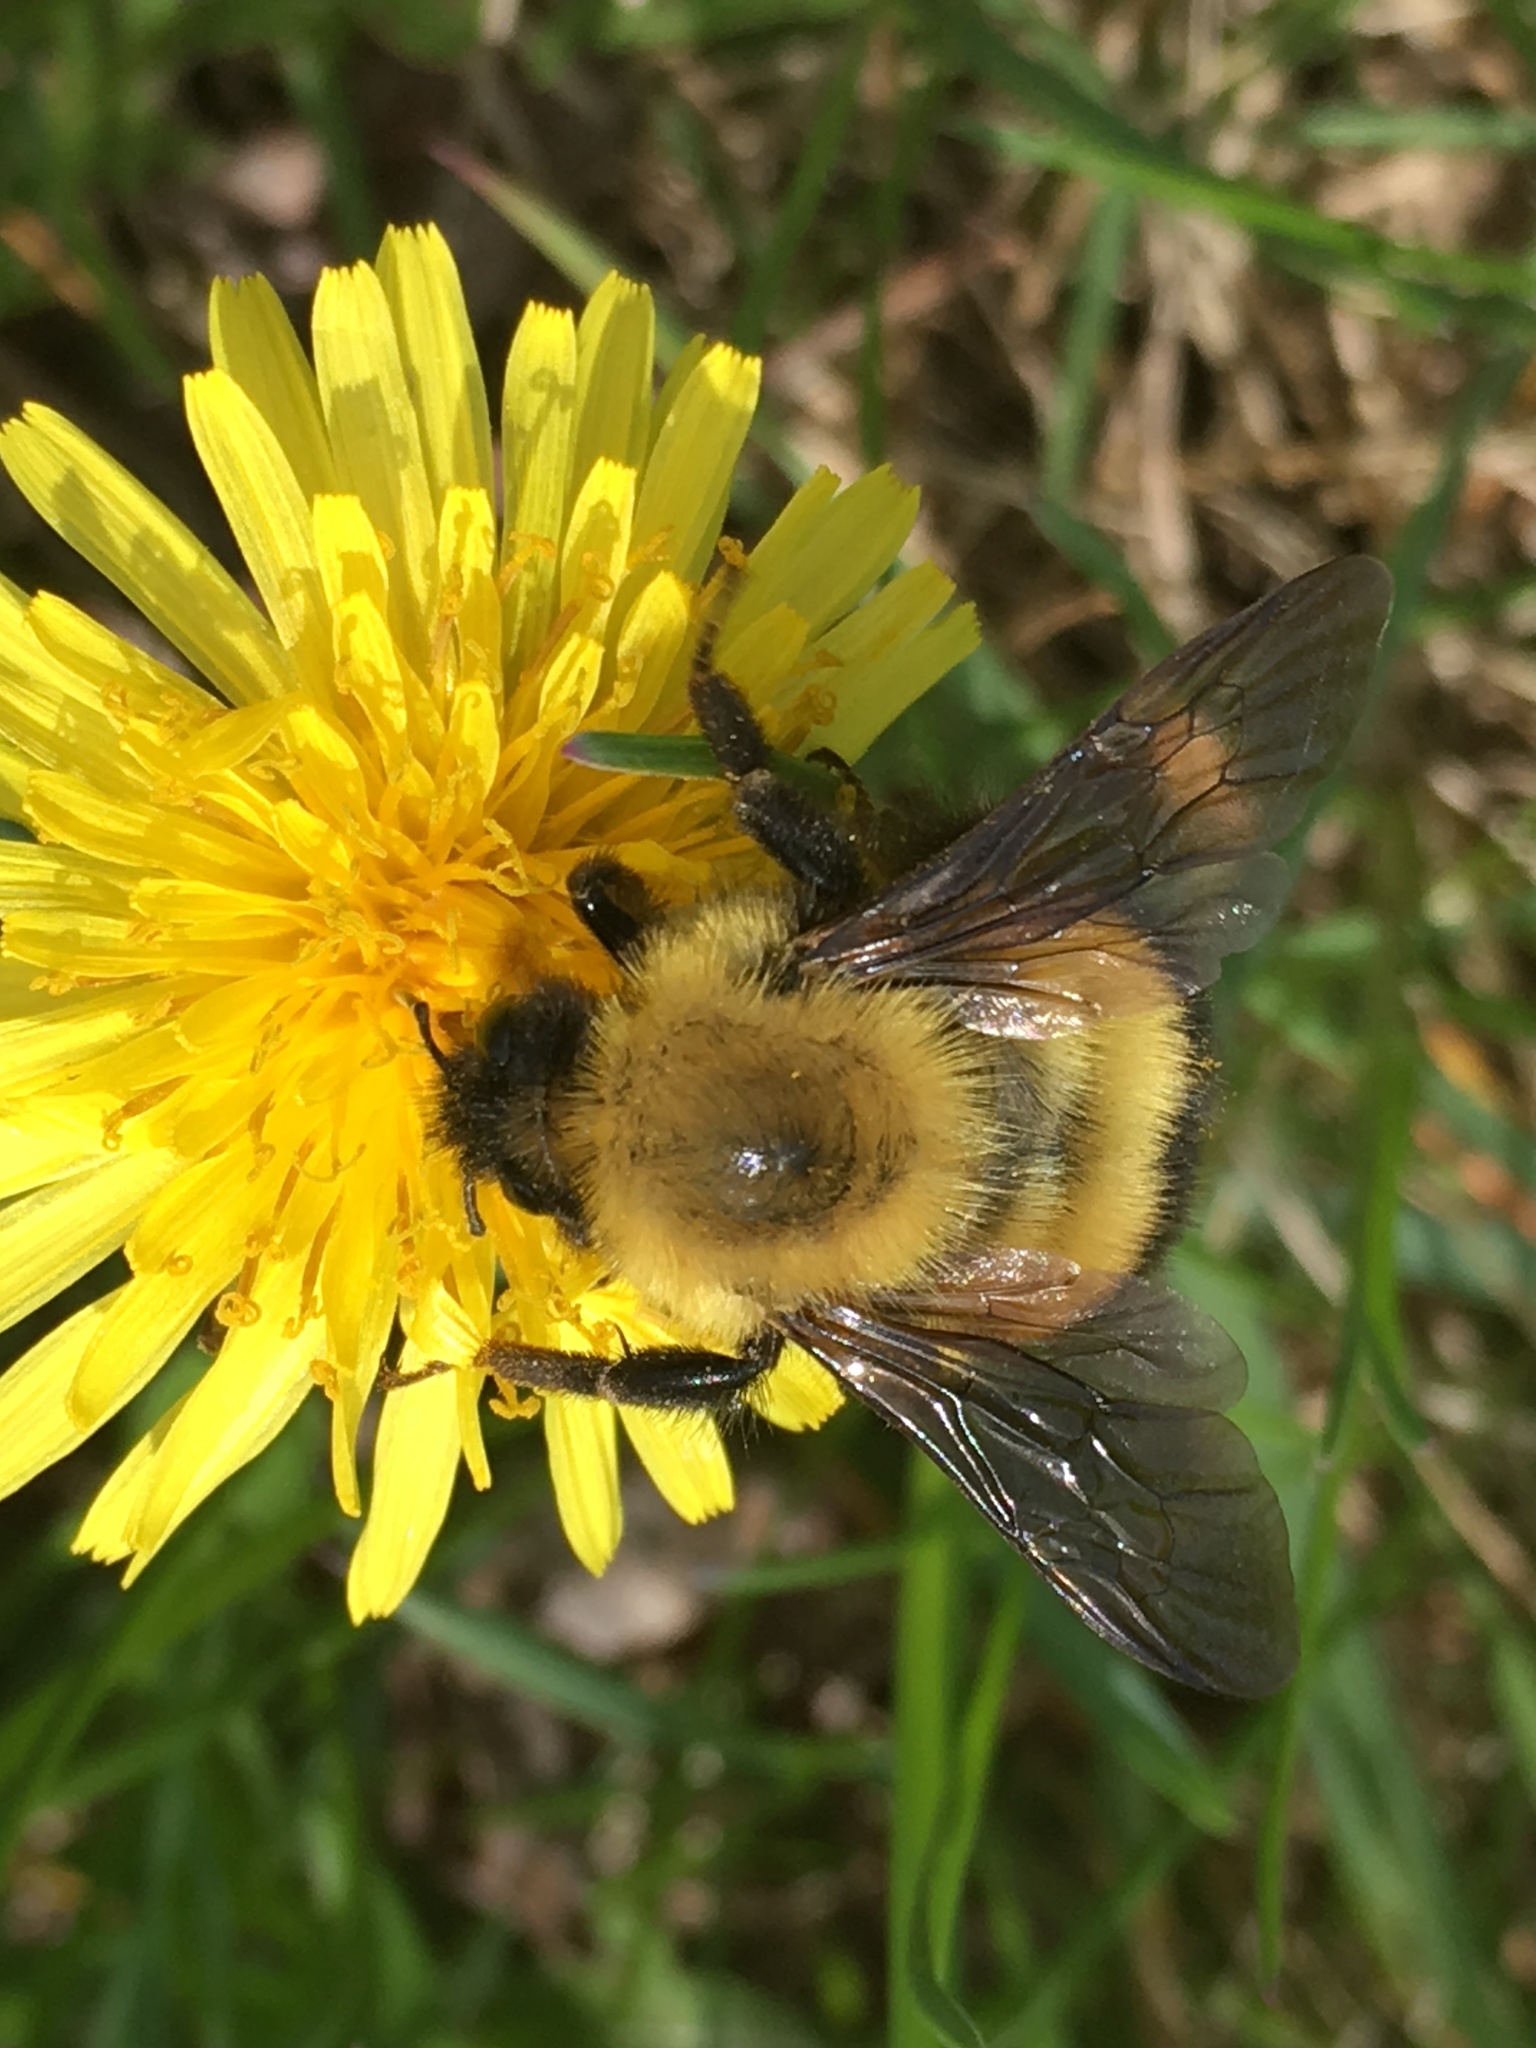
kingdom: Animalia
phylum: Arthropoda
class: Insecta
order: Hymenoptera
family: Apidae
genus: Bombus
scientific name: Bombus perplexus
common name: Confusing bumble bee
